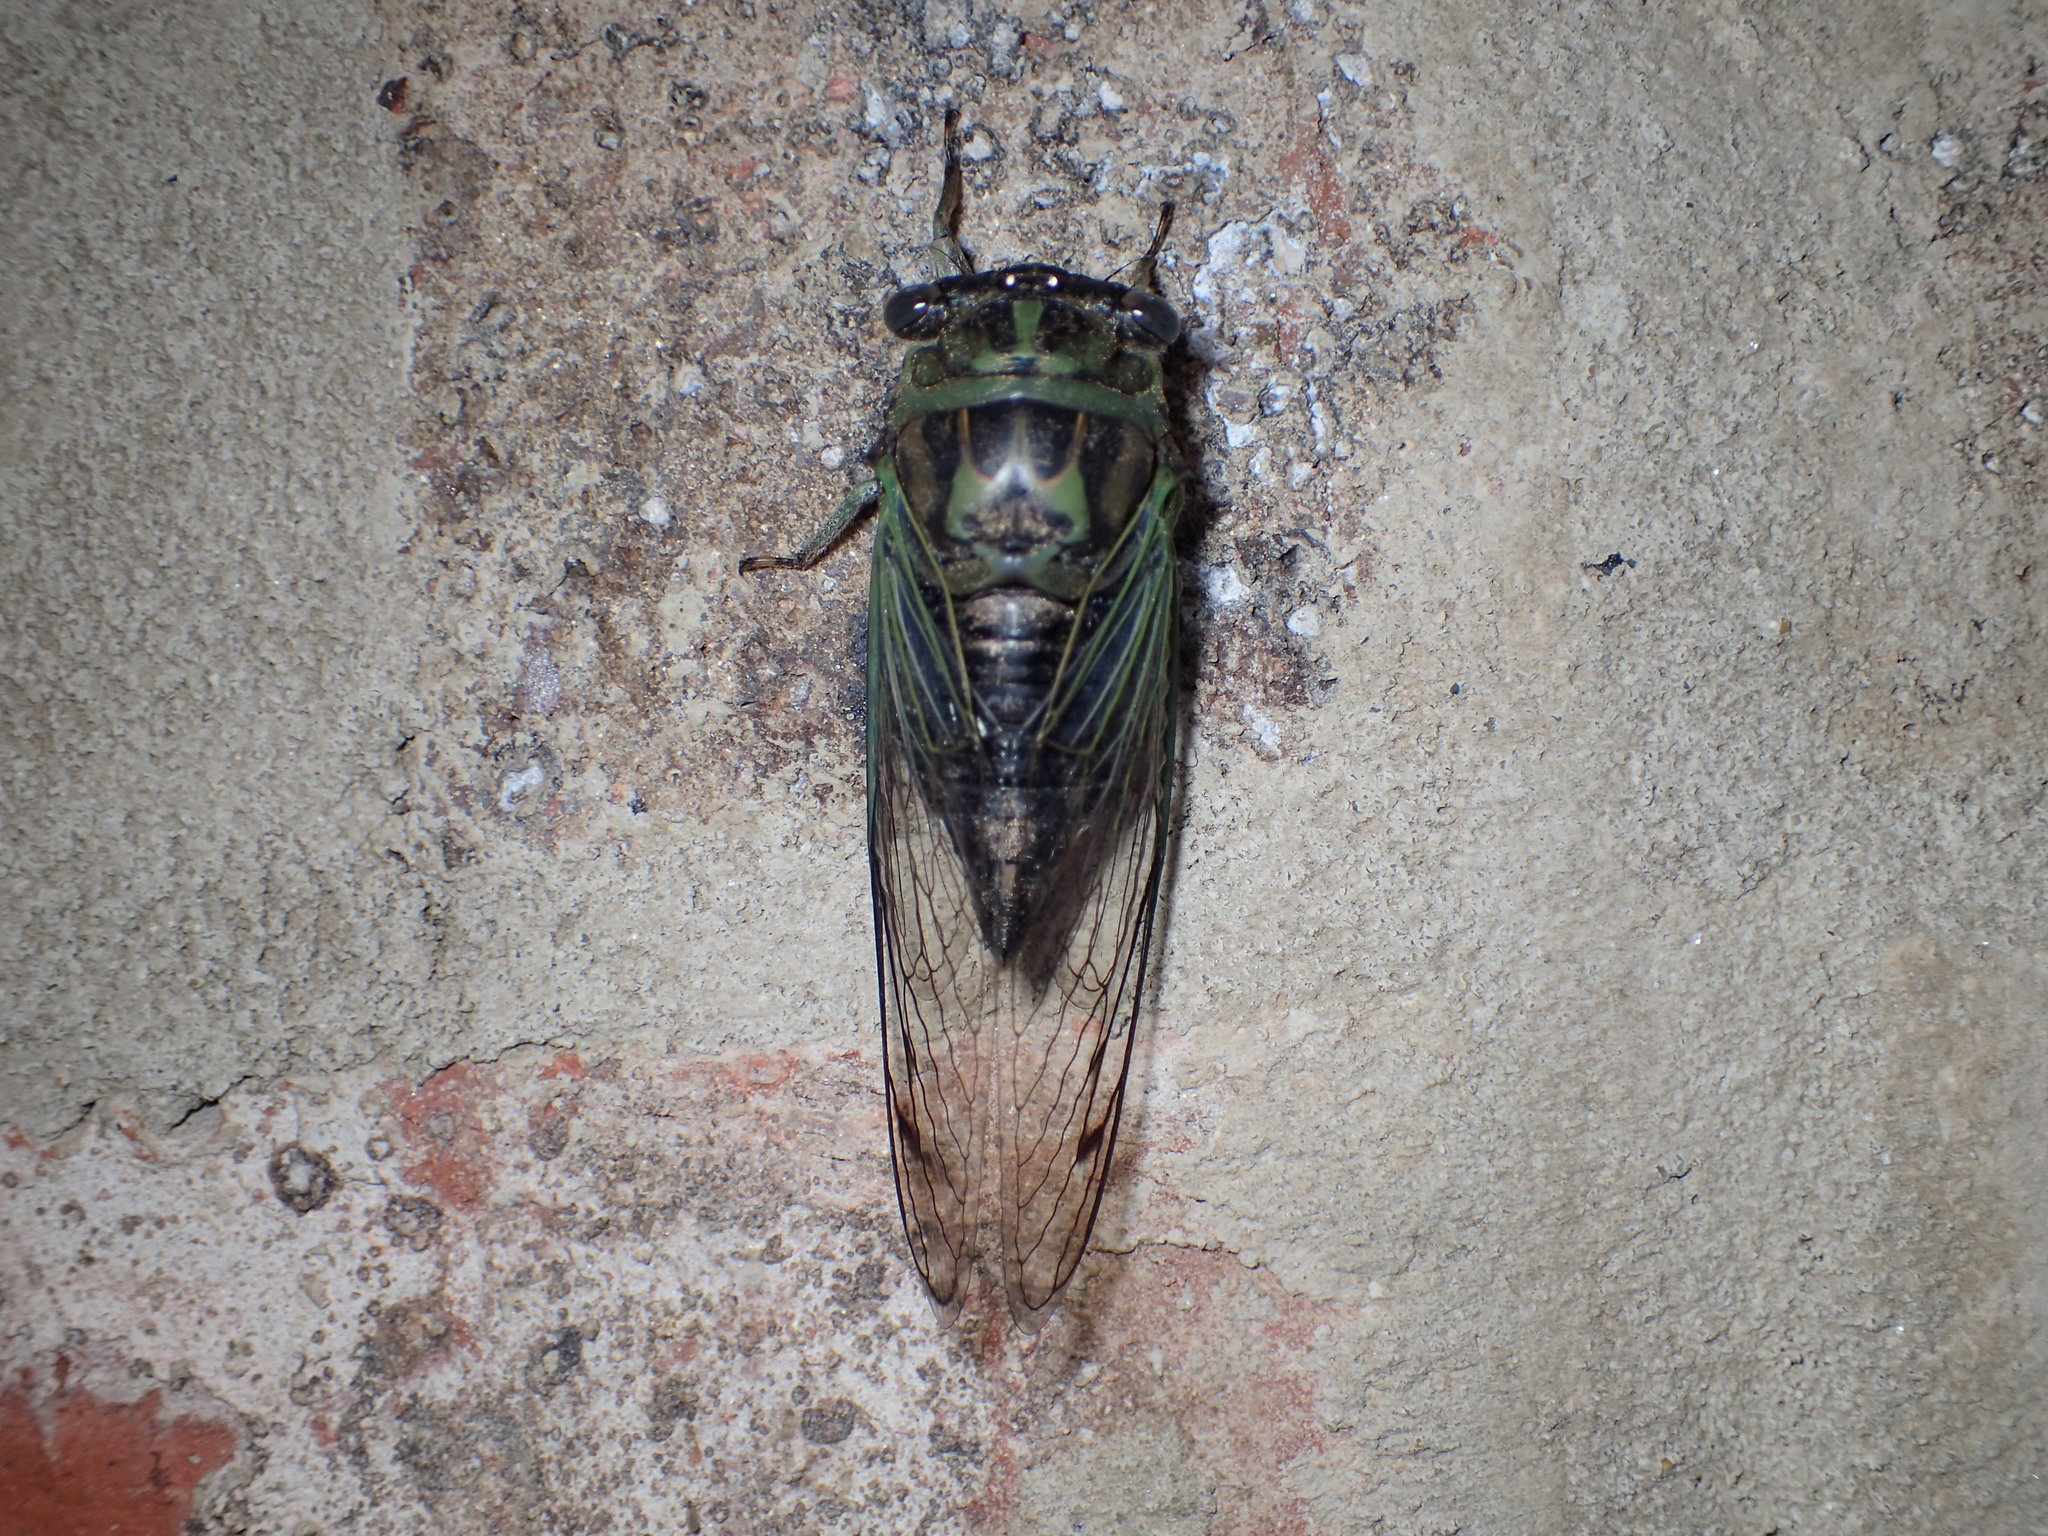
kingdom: Animalia
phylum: Arthropoda
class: Insecta
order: Hemiptera
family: Cicadidae
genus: Neotibicen
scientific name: Neotibicen linnei
